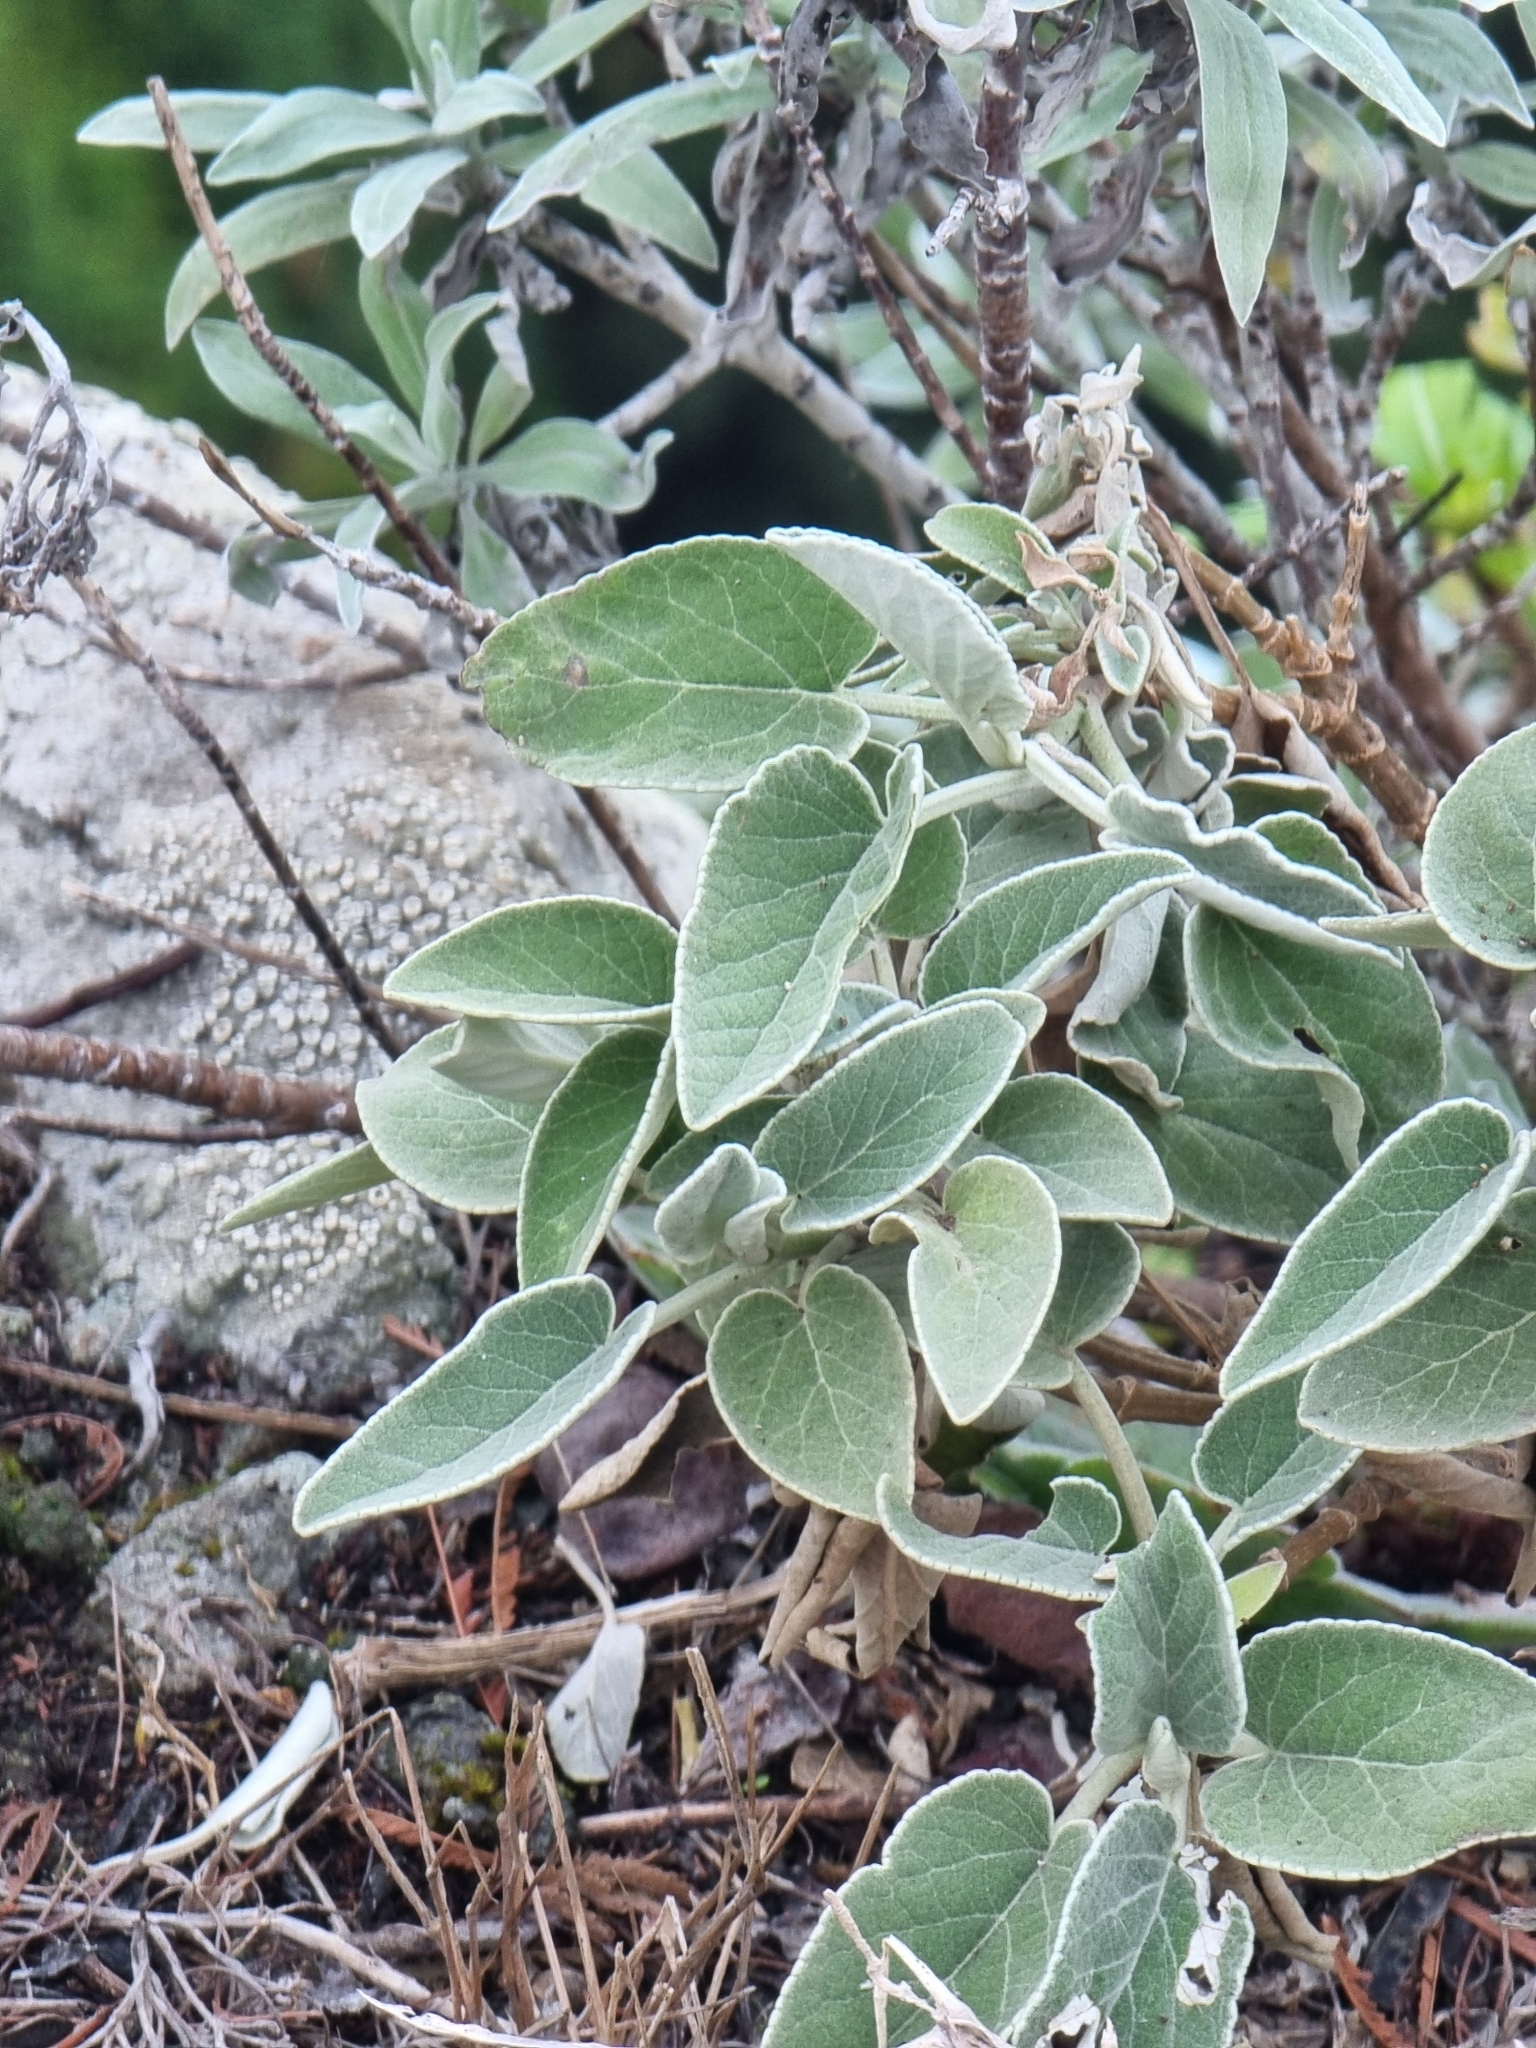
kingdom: Plantae
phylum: Tracheophyta
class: Magnoliopsida
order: Lamiales
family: Lamiaceae
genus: Sideritis
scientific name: Sideritis candicans
